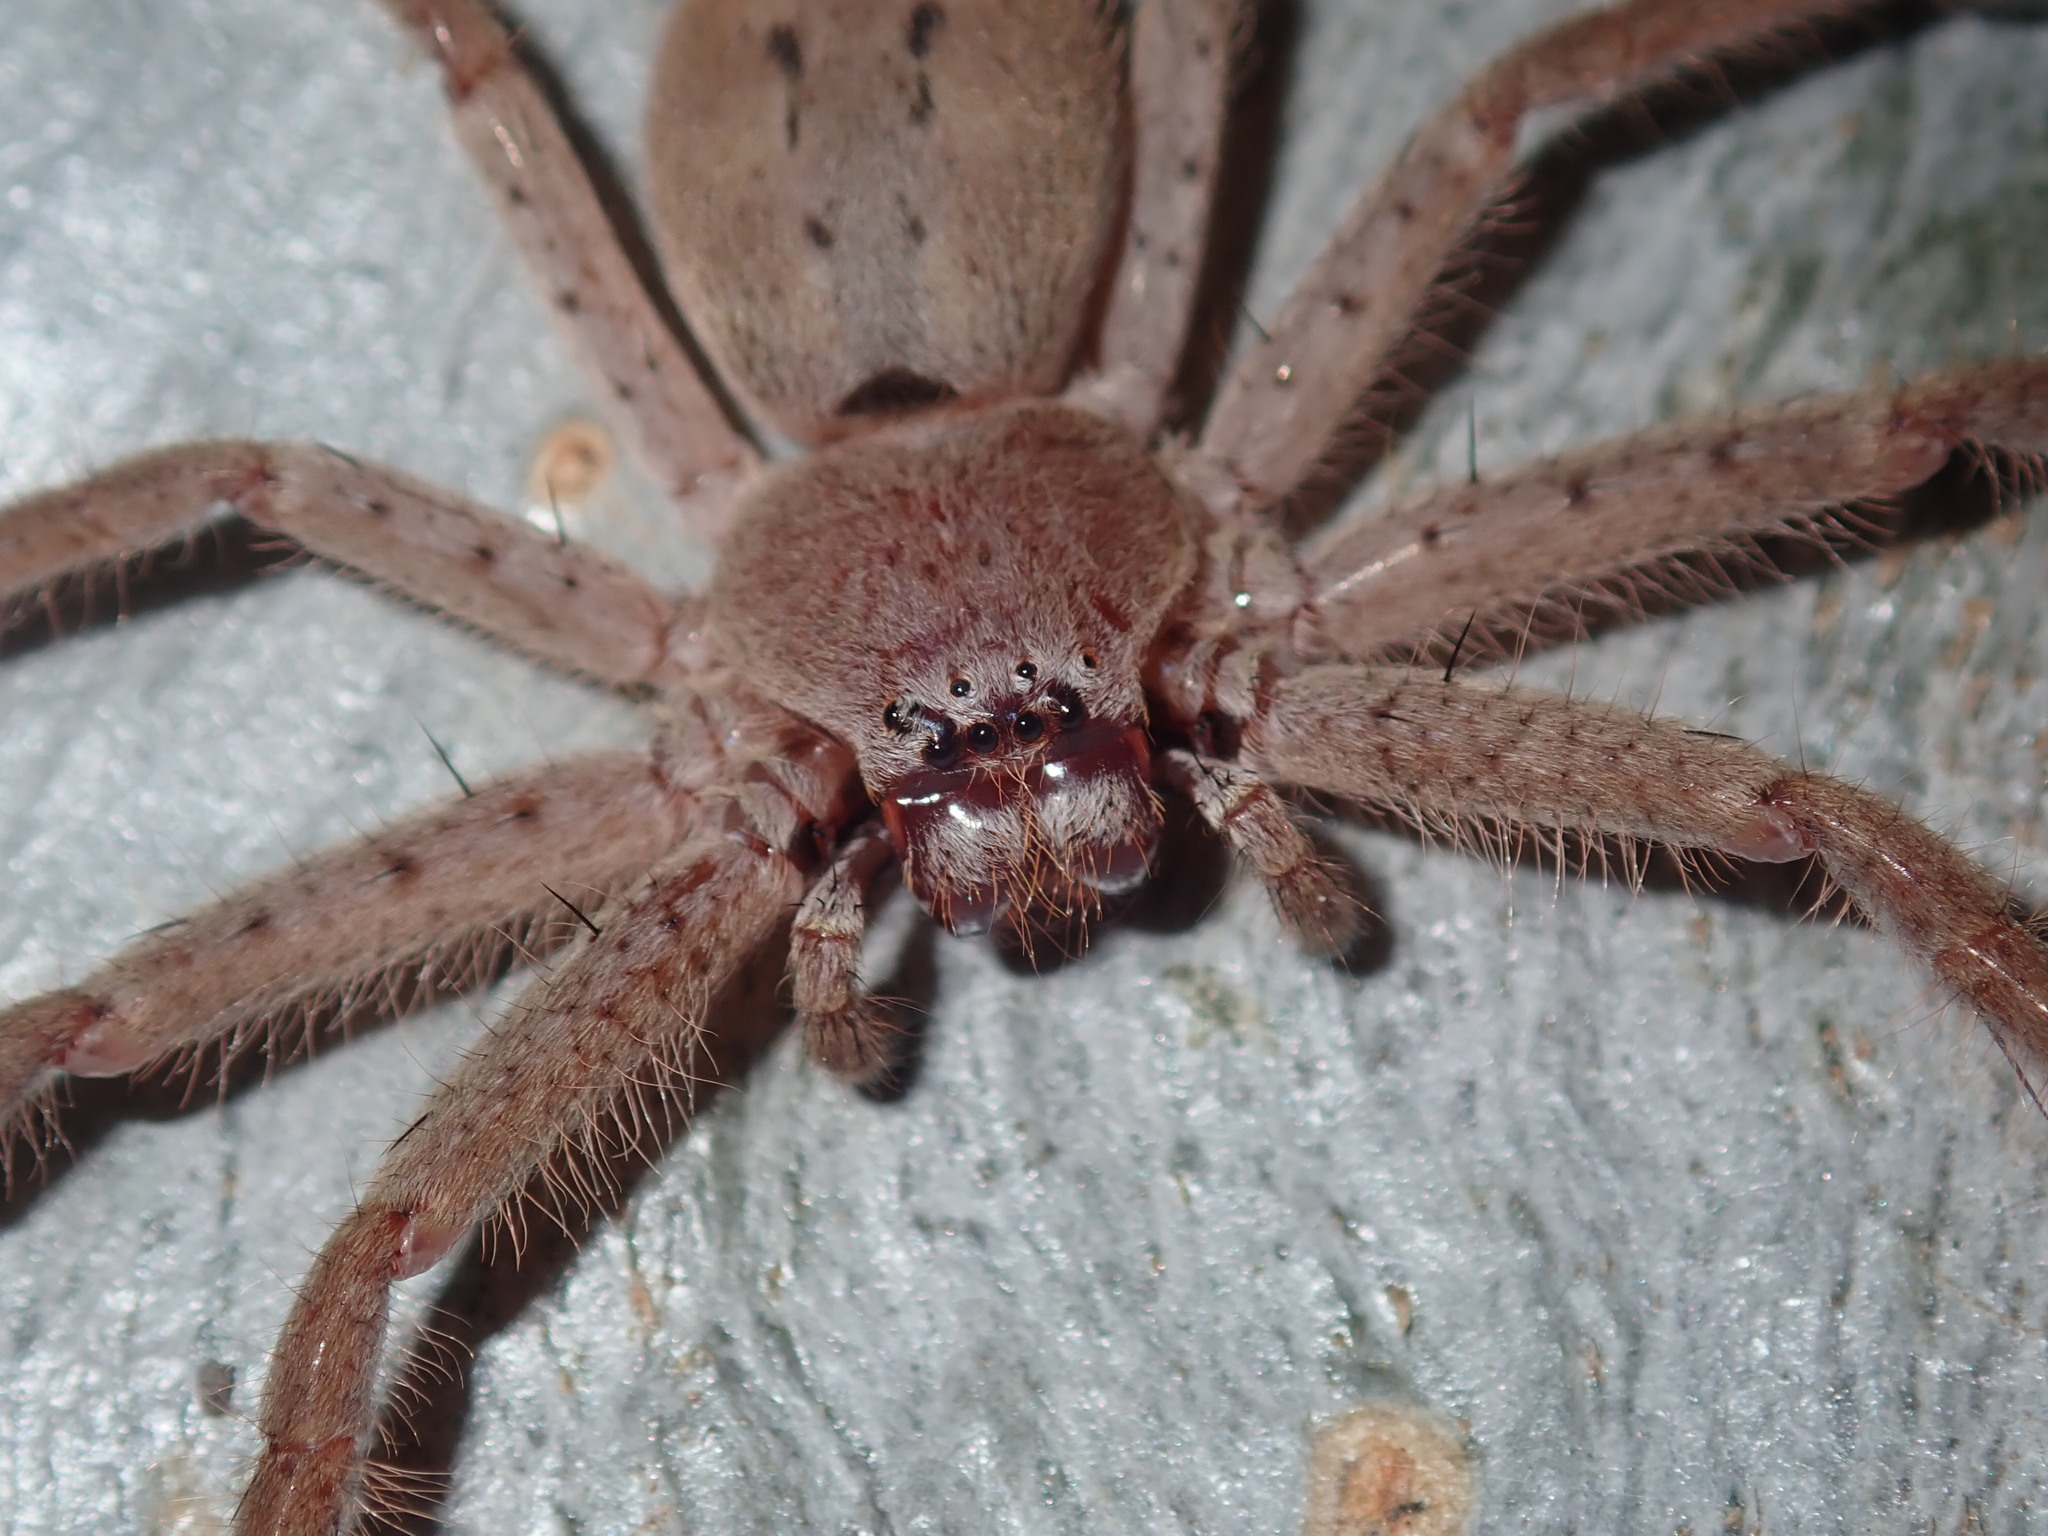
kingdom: Animalia
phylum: Arthropoda
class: Arachnida
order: Araneae
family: Sparassidae
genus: Isopeda
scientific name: Isopeda villosa
